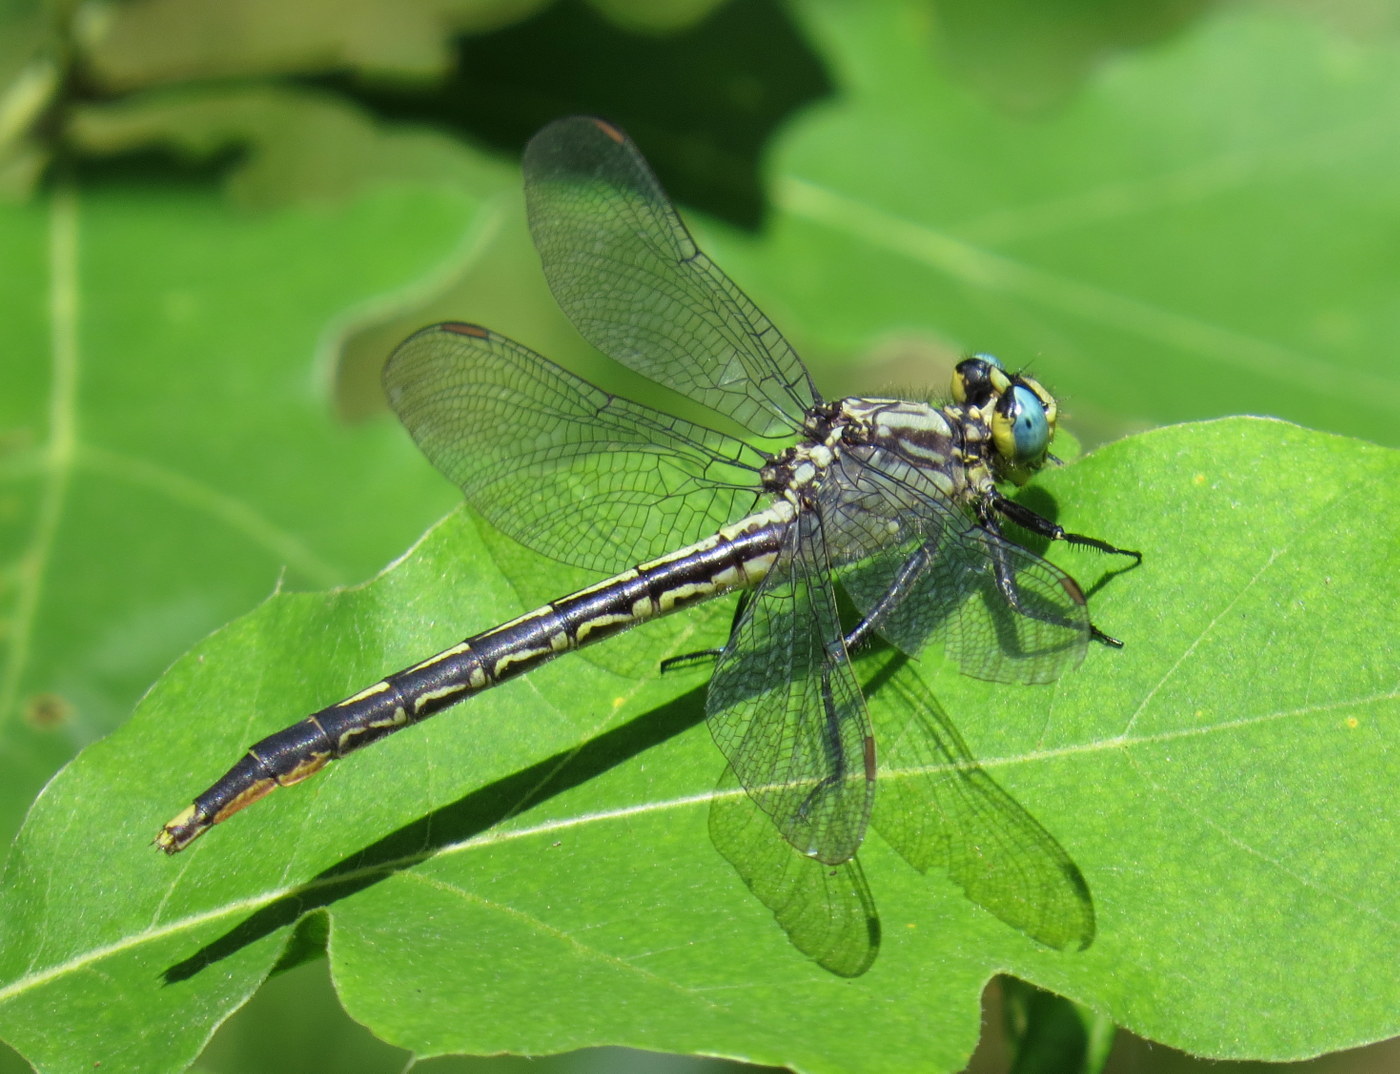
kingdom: Animalia
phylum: Arthropoda
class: Insecta
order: Odonata
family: Gomphidae
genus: Arigomphus
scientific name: Arigomphus furcifer
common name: Lilypad clubtail
